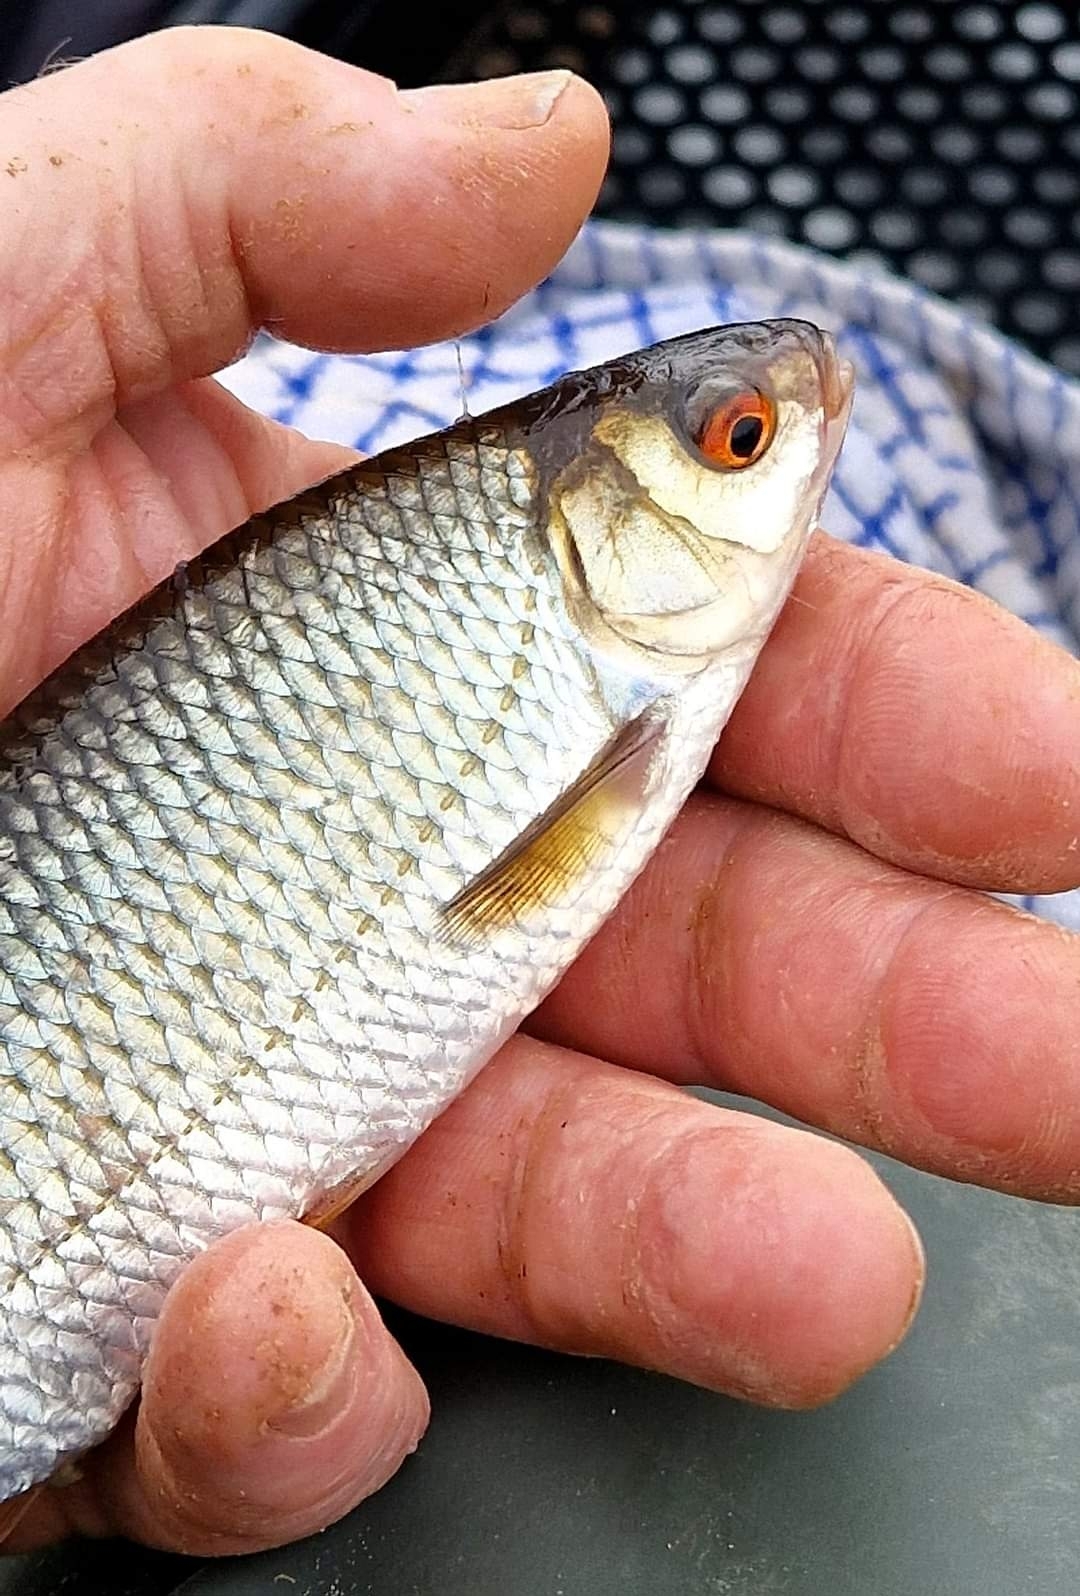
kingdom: Animalia
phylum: Chordata
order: Cypriniformes
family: Cyprinidae
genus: Rutilus
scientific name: Rutilus rutilus
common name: Roach
